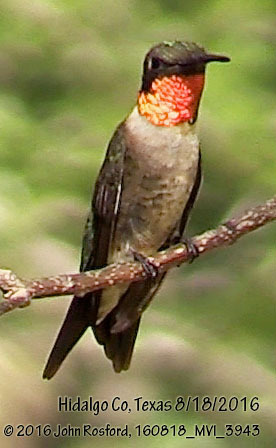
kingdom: Animalia
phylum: Chordata
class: Aves
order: Apodiformes
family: Trochilidae
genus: Archilochus
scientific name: Archilochus colubris
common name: Ruby-throated hummingbird
